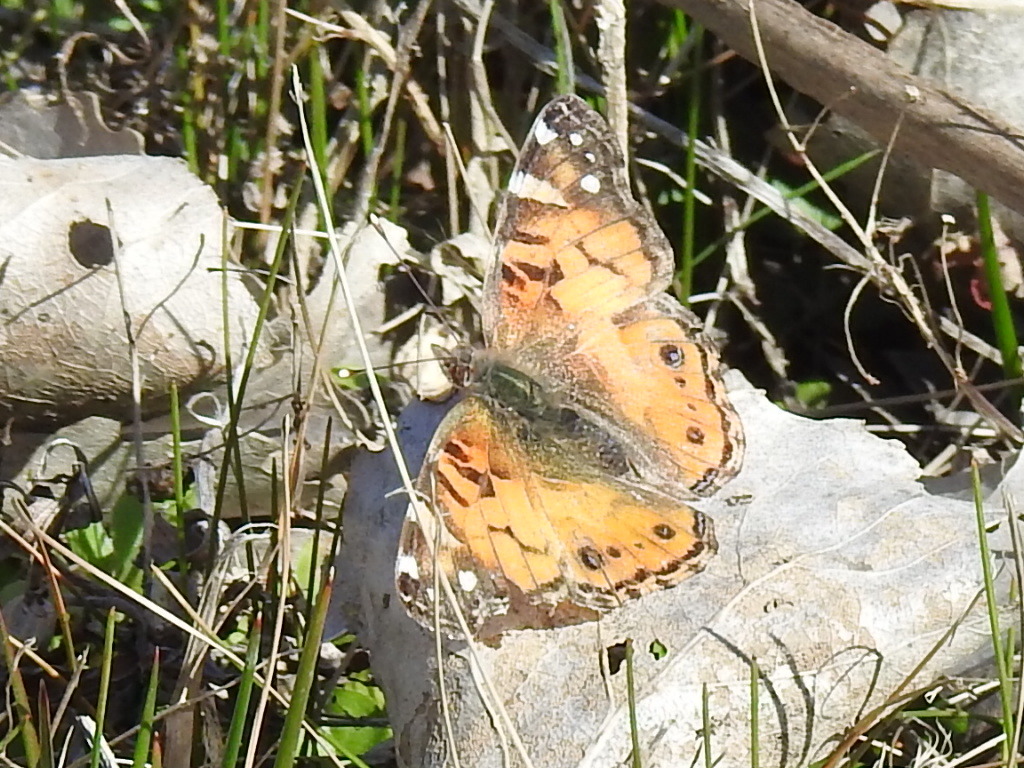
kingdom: Animalia
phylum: Arthropoda
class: Insecta
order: Lepidoptera
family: Nymphalidae
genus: Vanessa
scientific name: Vanessa virginiensis
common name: American lady
